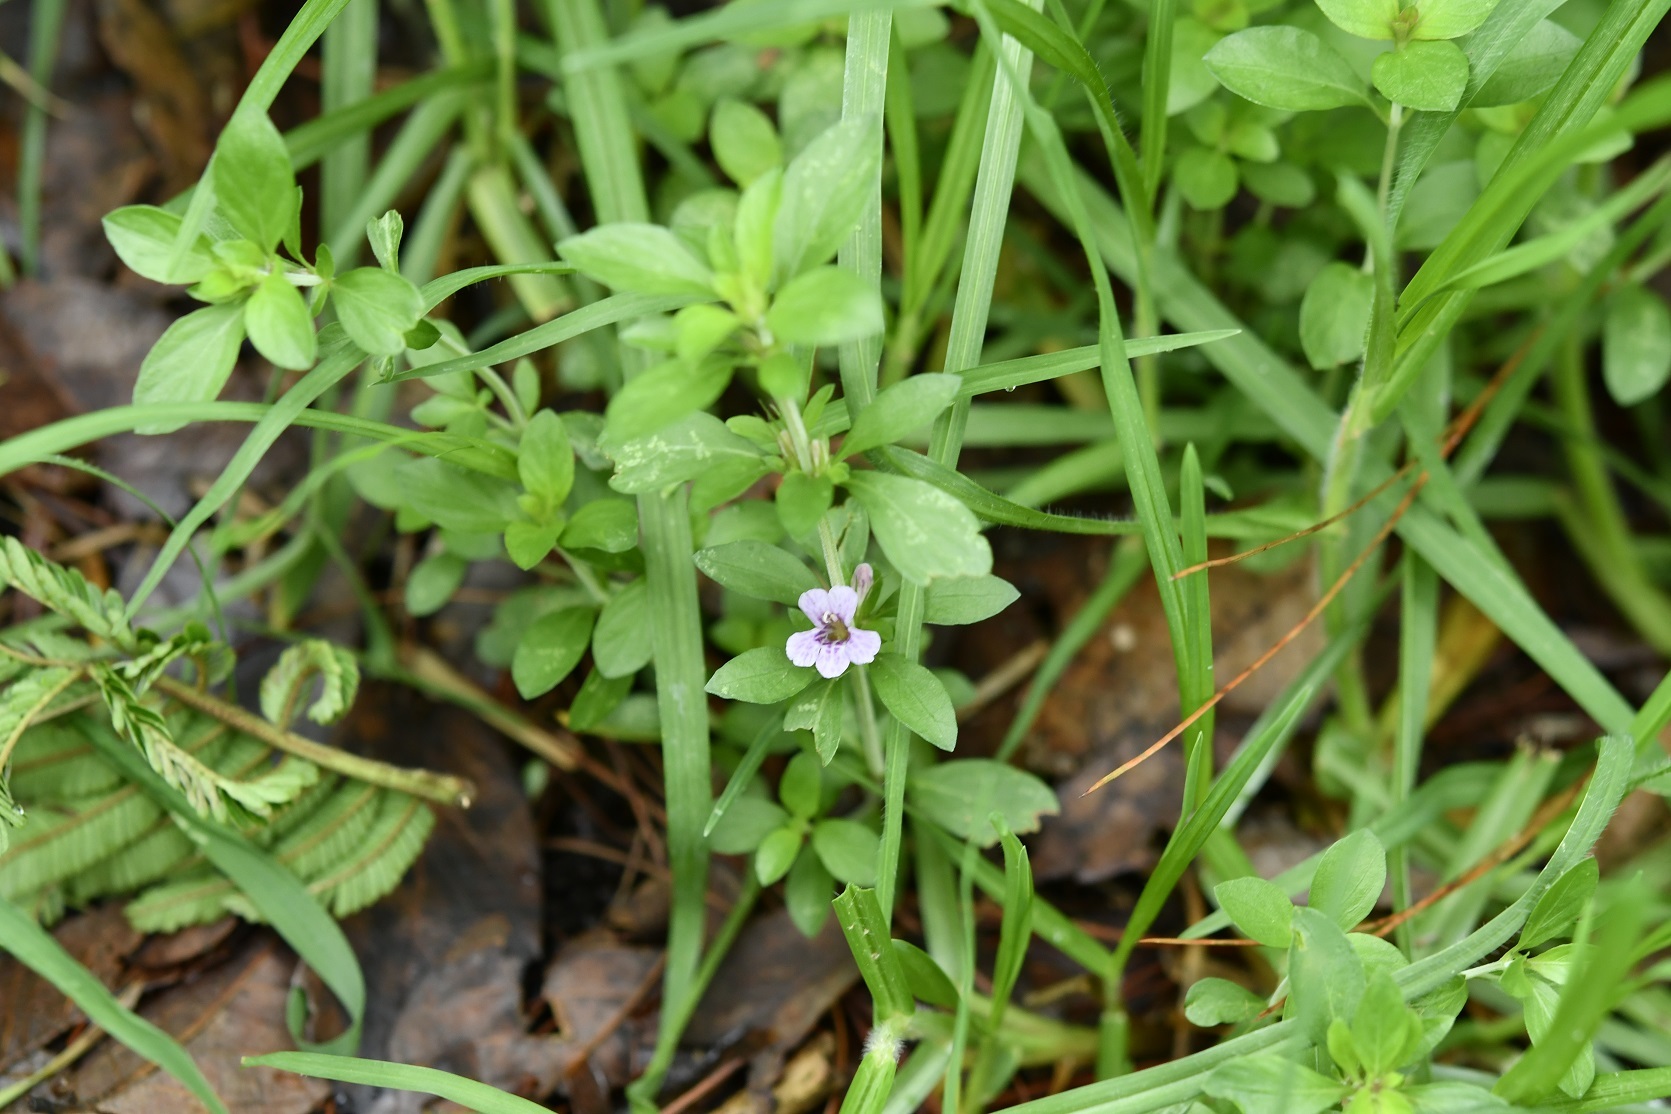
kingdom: Plantae
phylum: Tracheophyta
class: Magnoliopsida
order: Lamiales
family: Acanthaceae
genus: Dyschoriste
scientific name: Dyschoriste capitata
